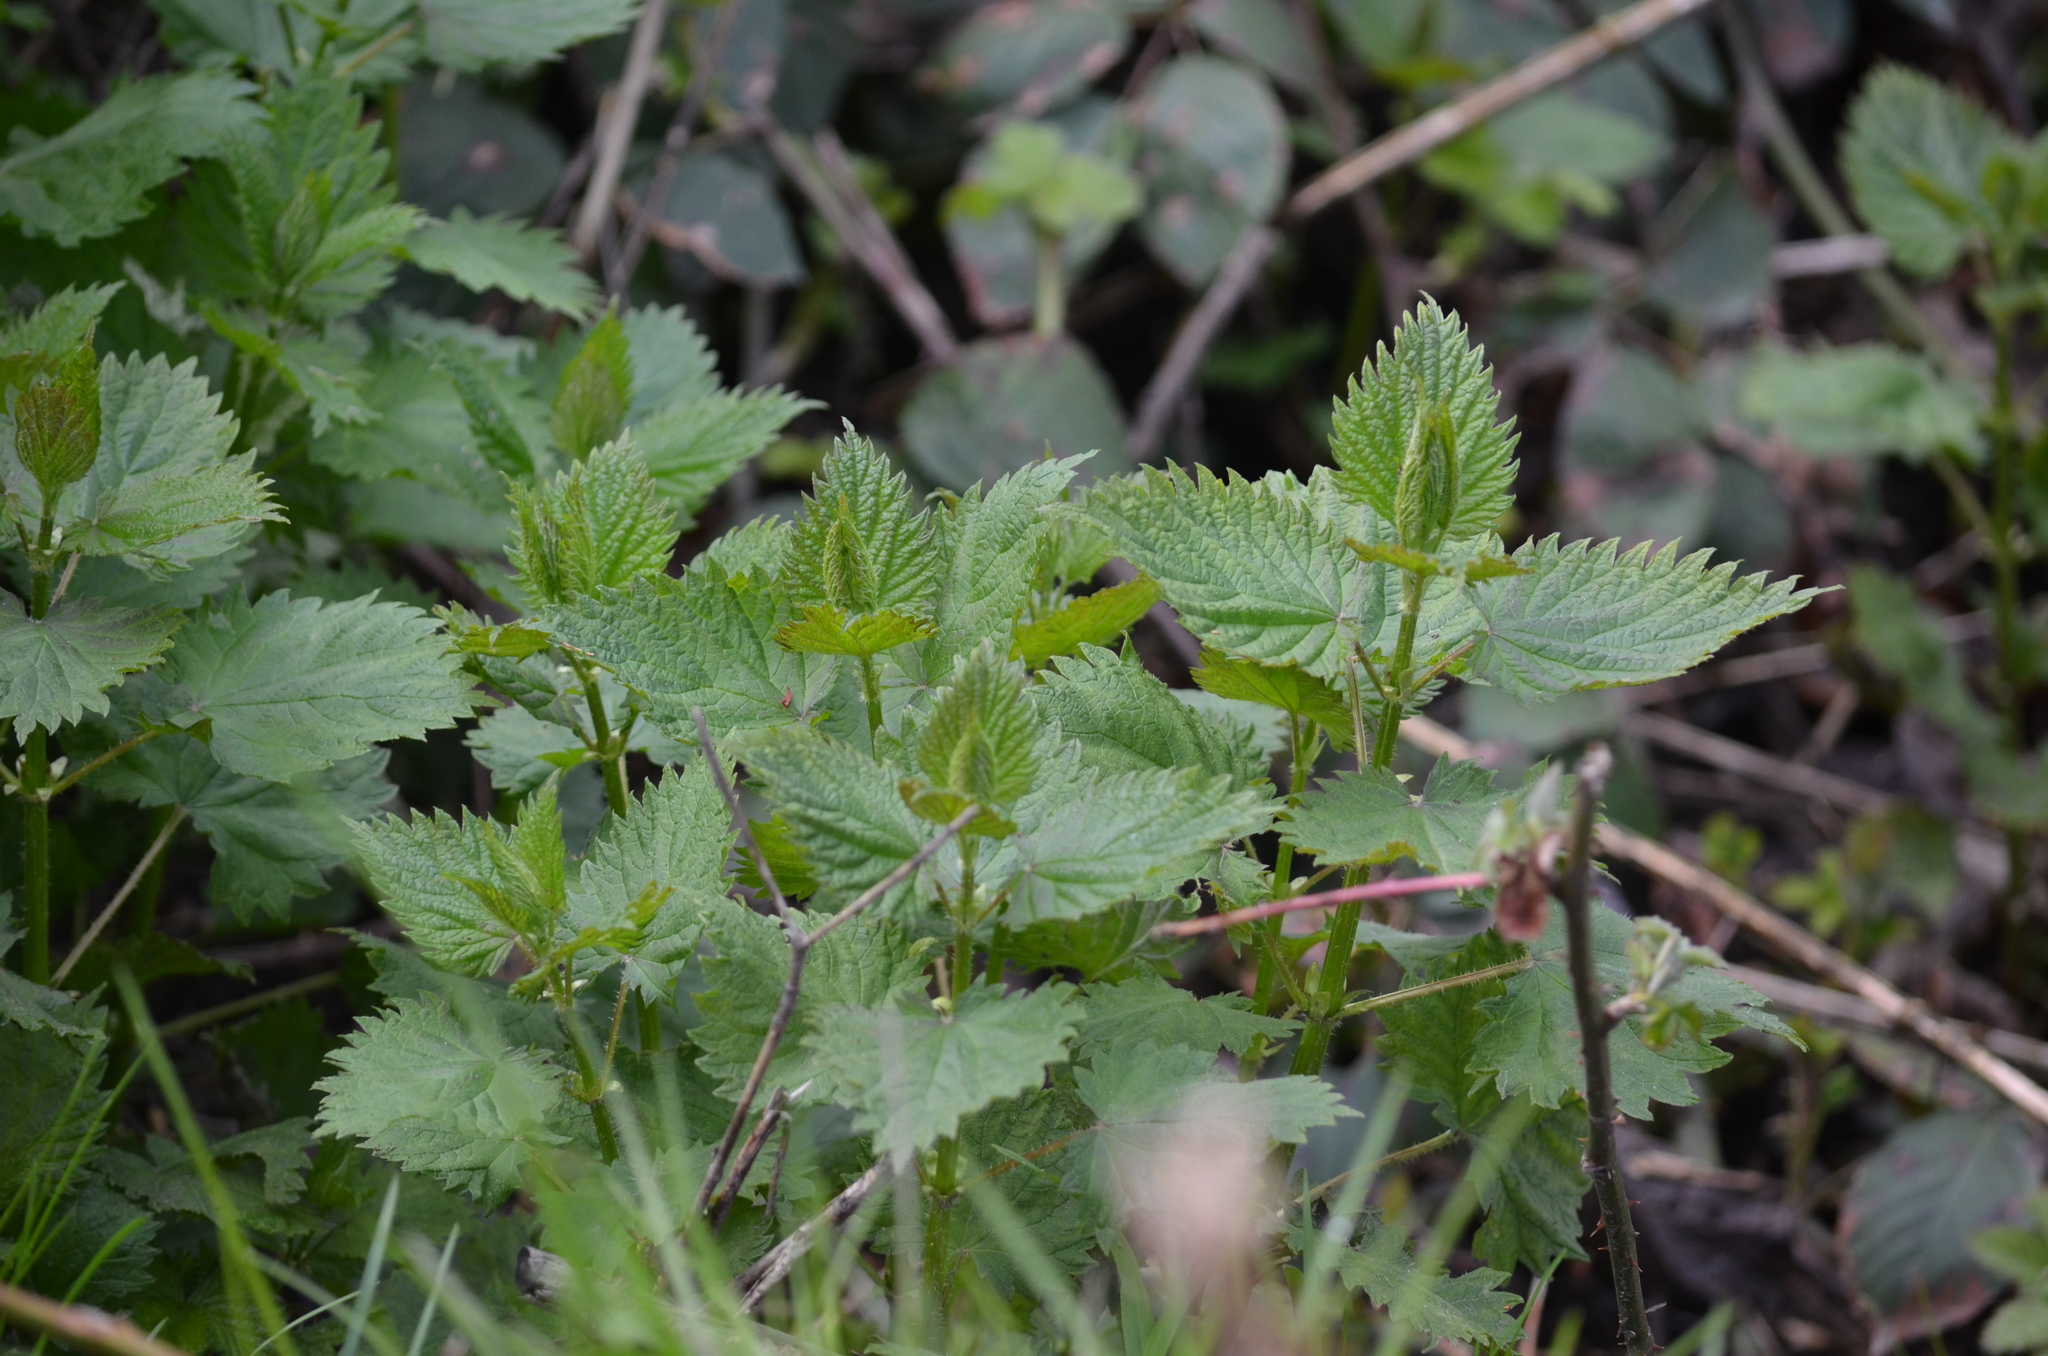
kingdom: Plantae
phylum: Tracheophyta
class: Magnoliopsida
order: Rosales
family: Urticaceae
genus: Urtica
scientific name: Urtica dioica
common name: Common nettle
